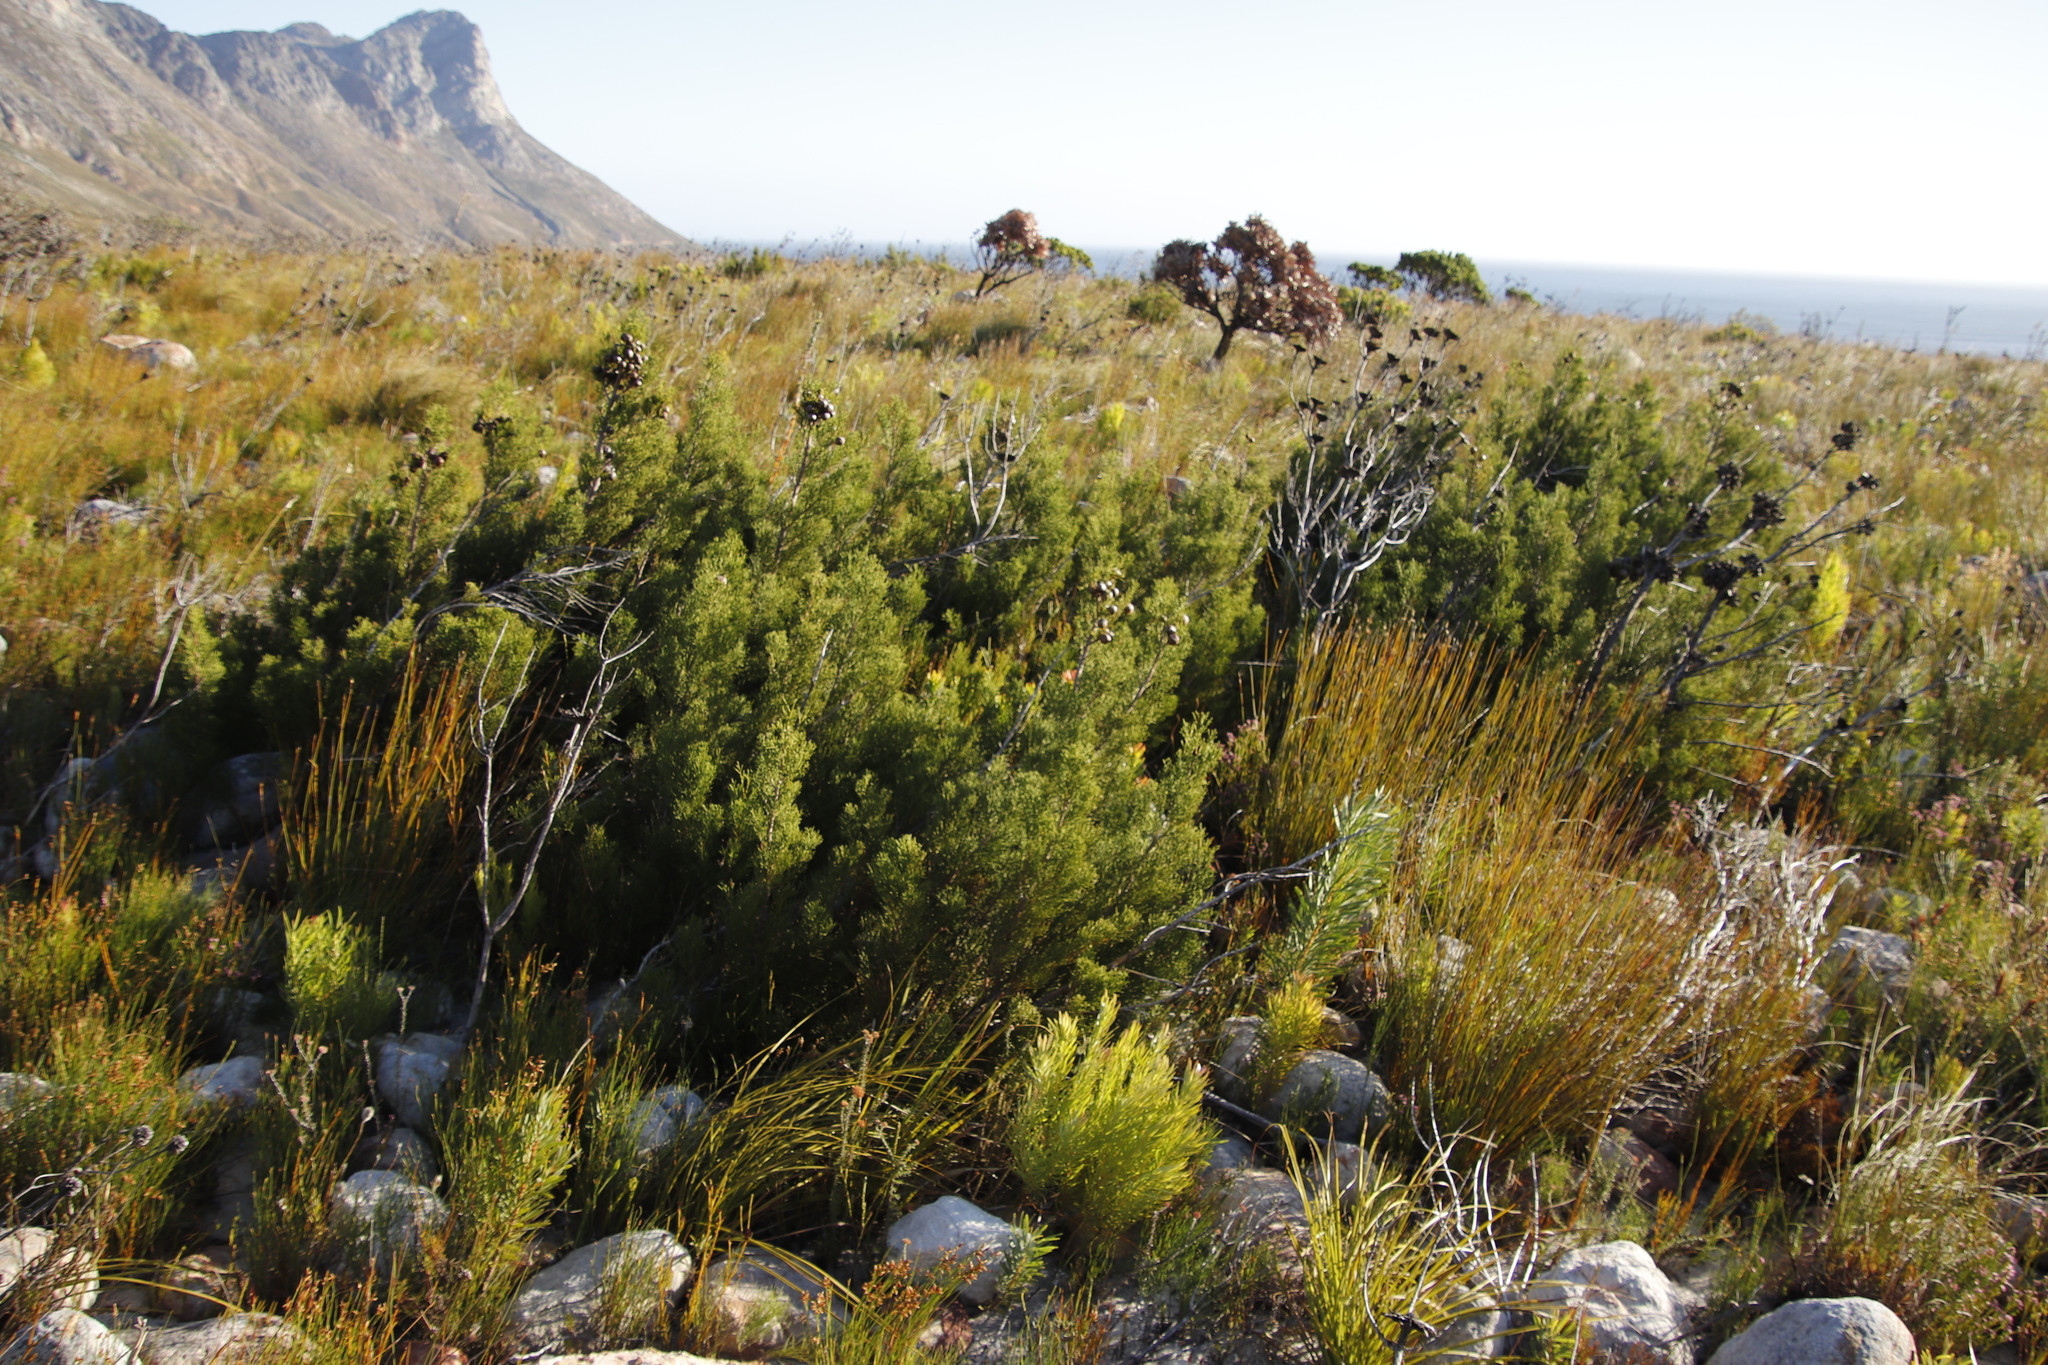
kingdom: Plantae
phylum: Tracheophyta
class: Pinopsida
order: Pinales
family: Cupressaceae
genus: Widdringtonia
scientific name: Widdringtonia nodiflora
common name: Cape cypress
